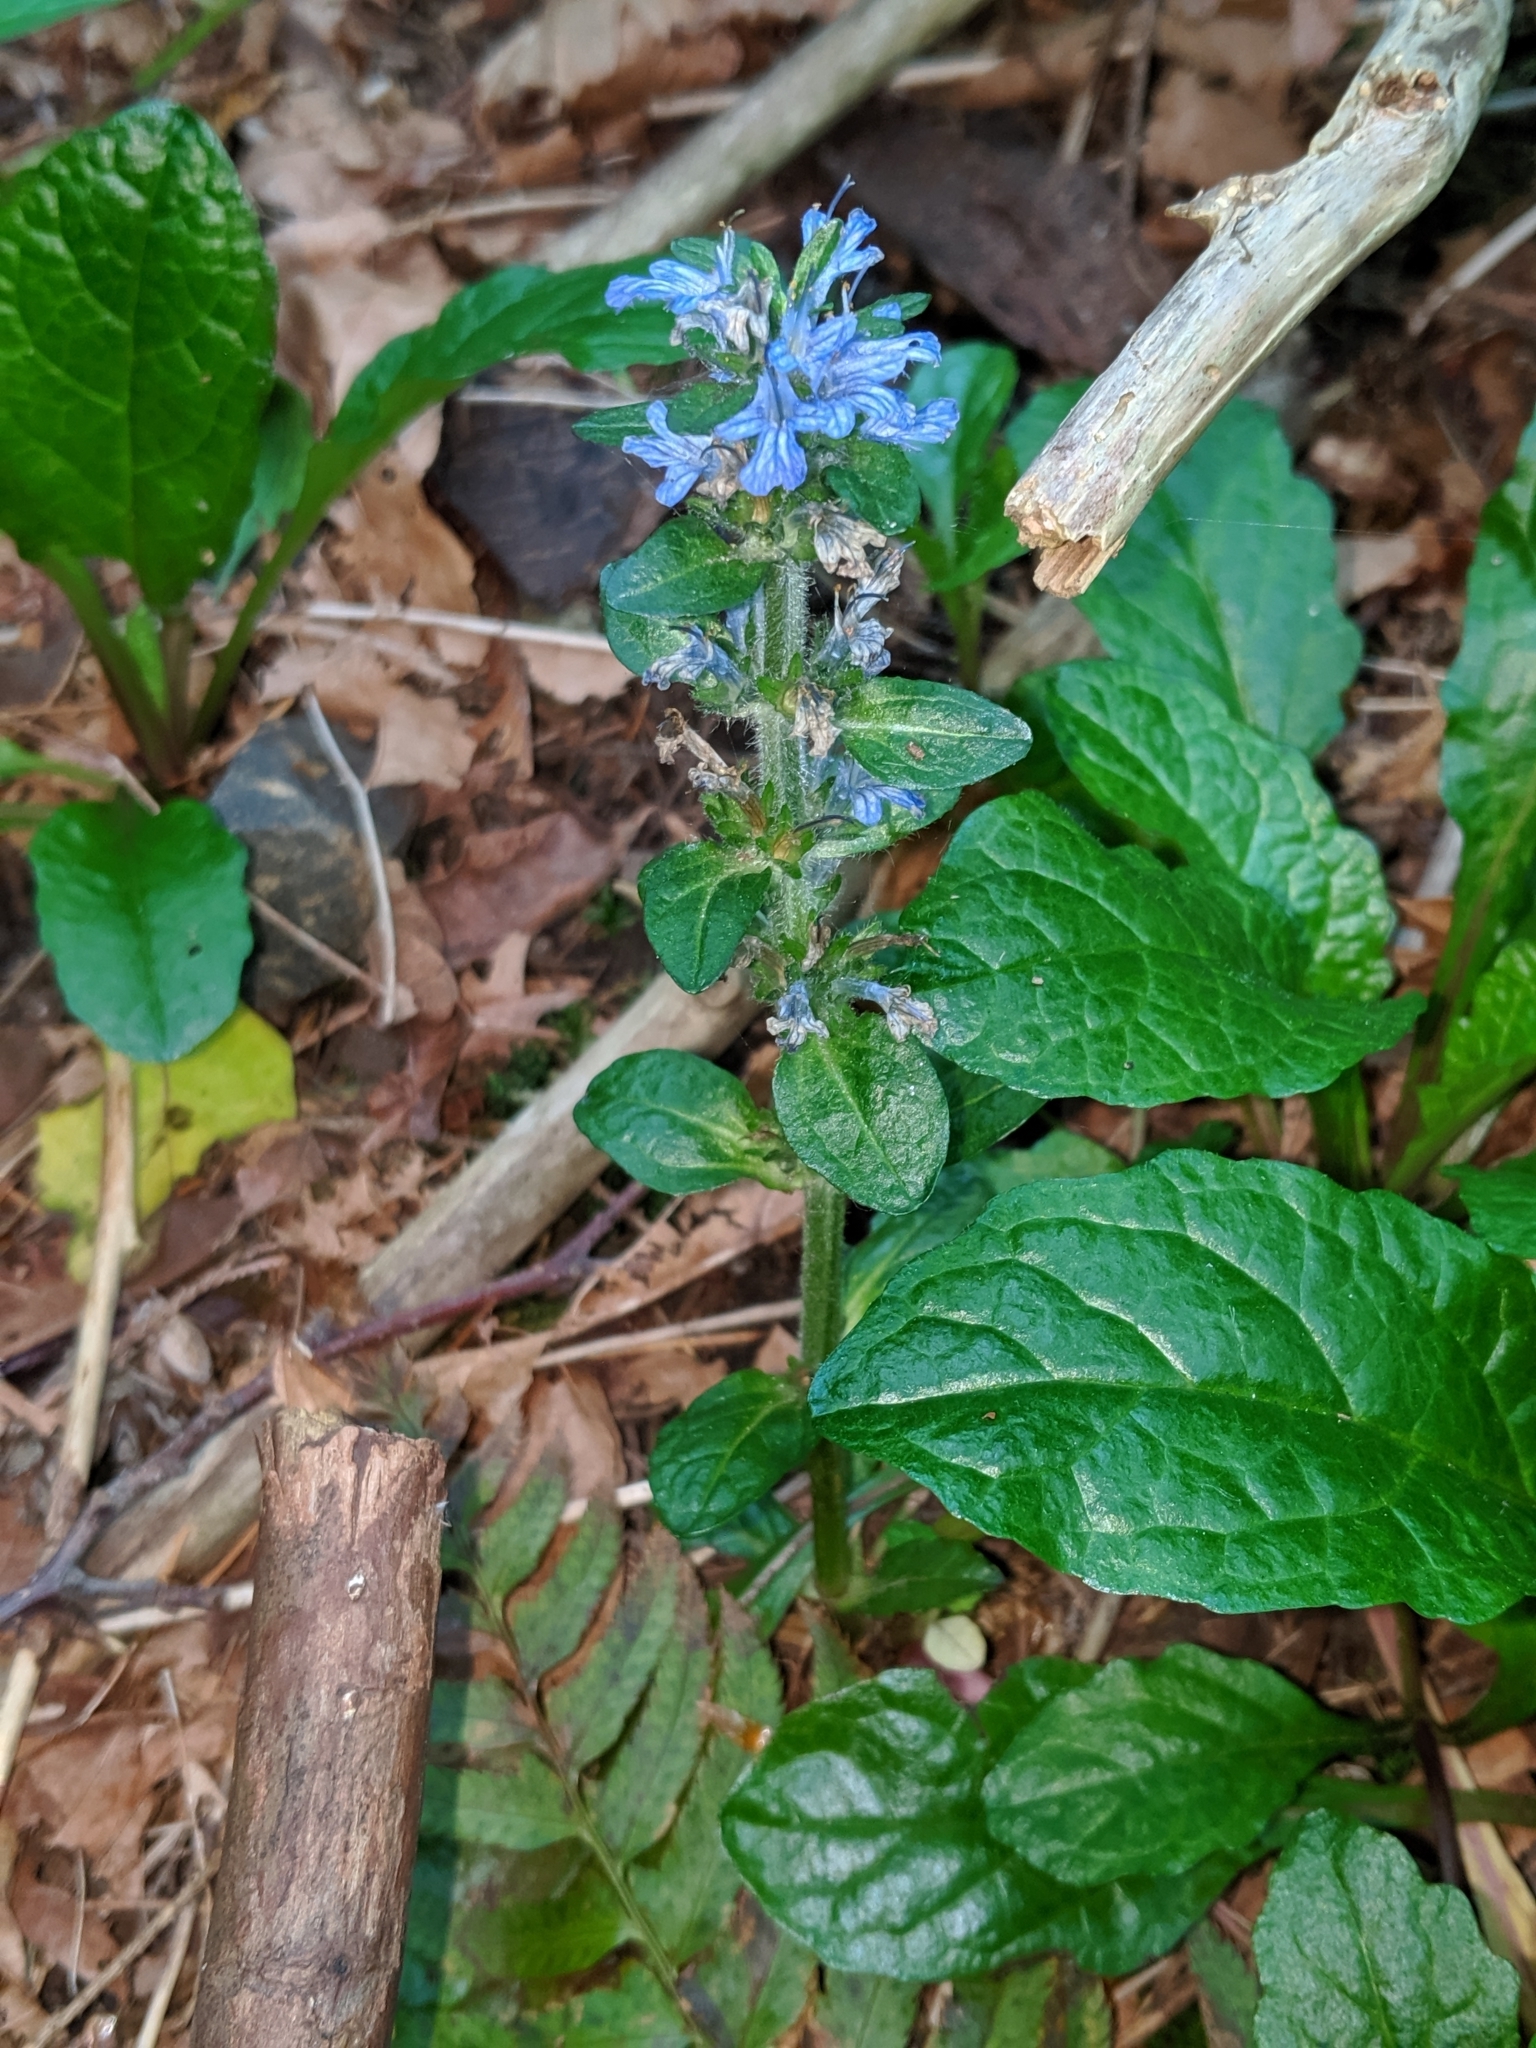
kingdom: Plantae
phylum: Tracheophyta
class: Magnoliopsida
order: Lamiales
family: Lamiaceae
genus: Ajuga
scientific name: Ajuga reptans
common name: Bugle
